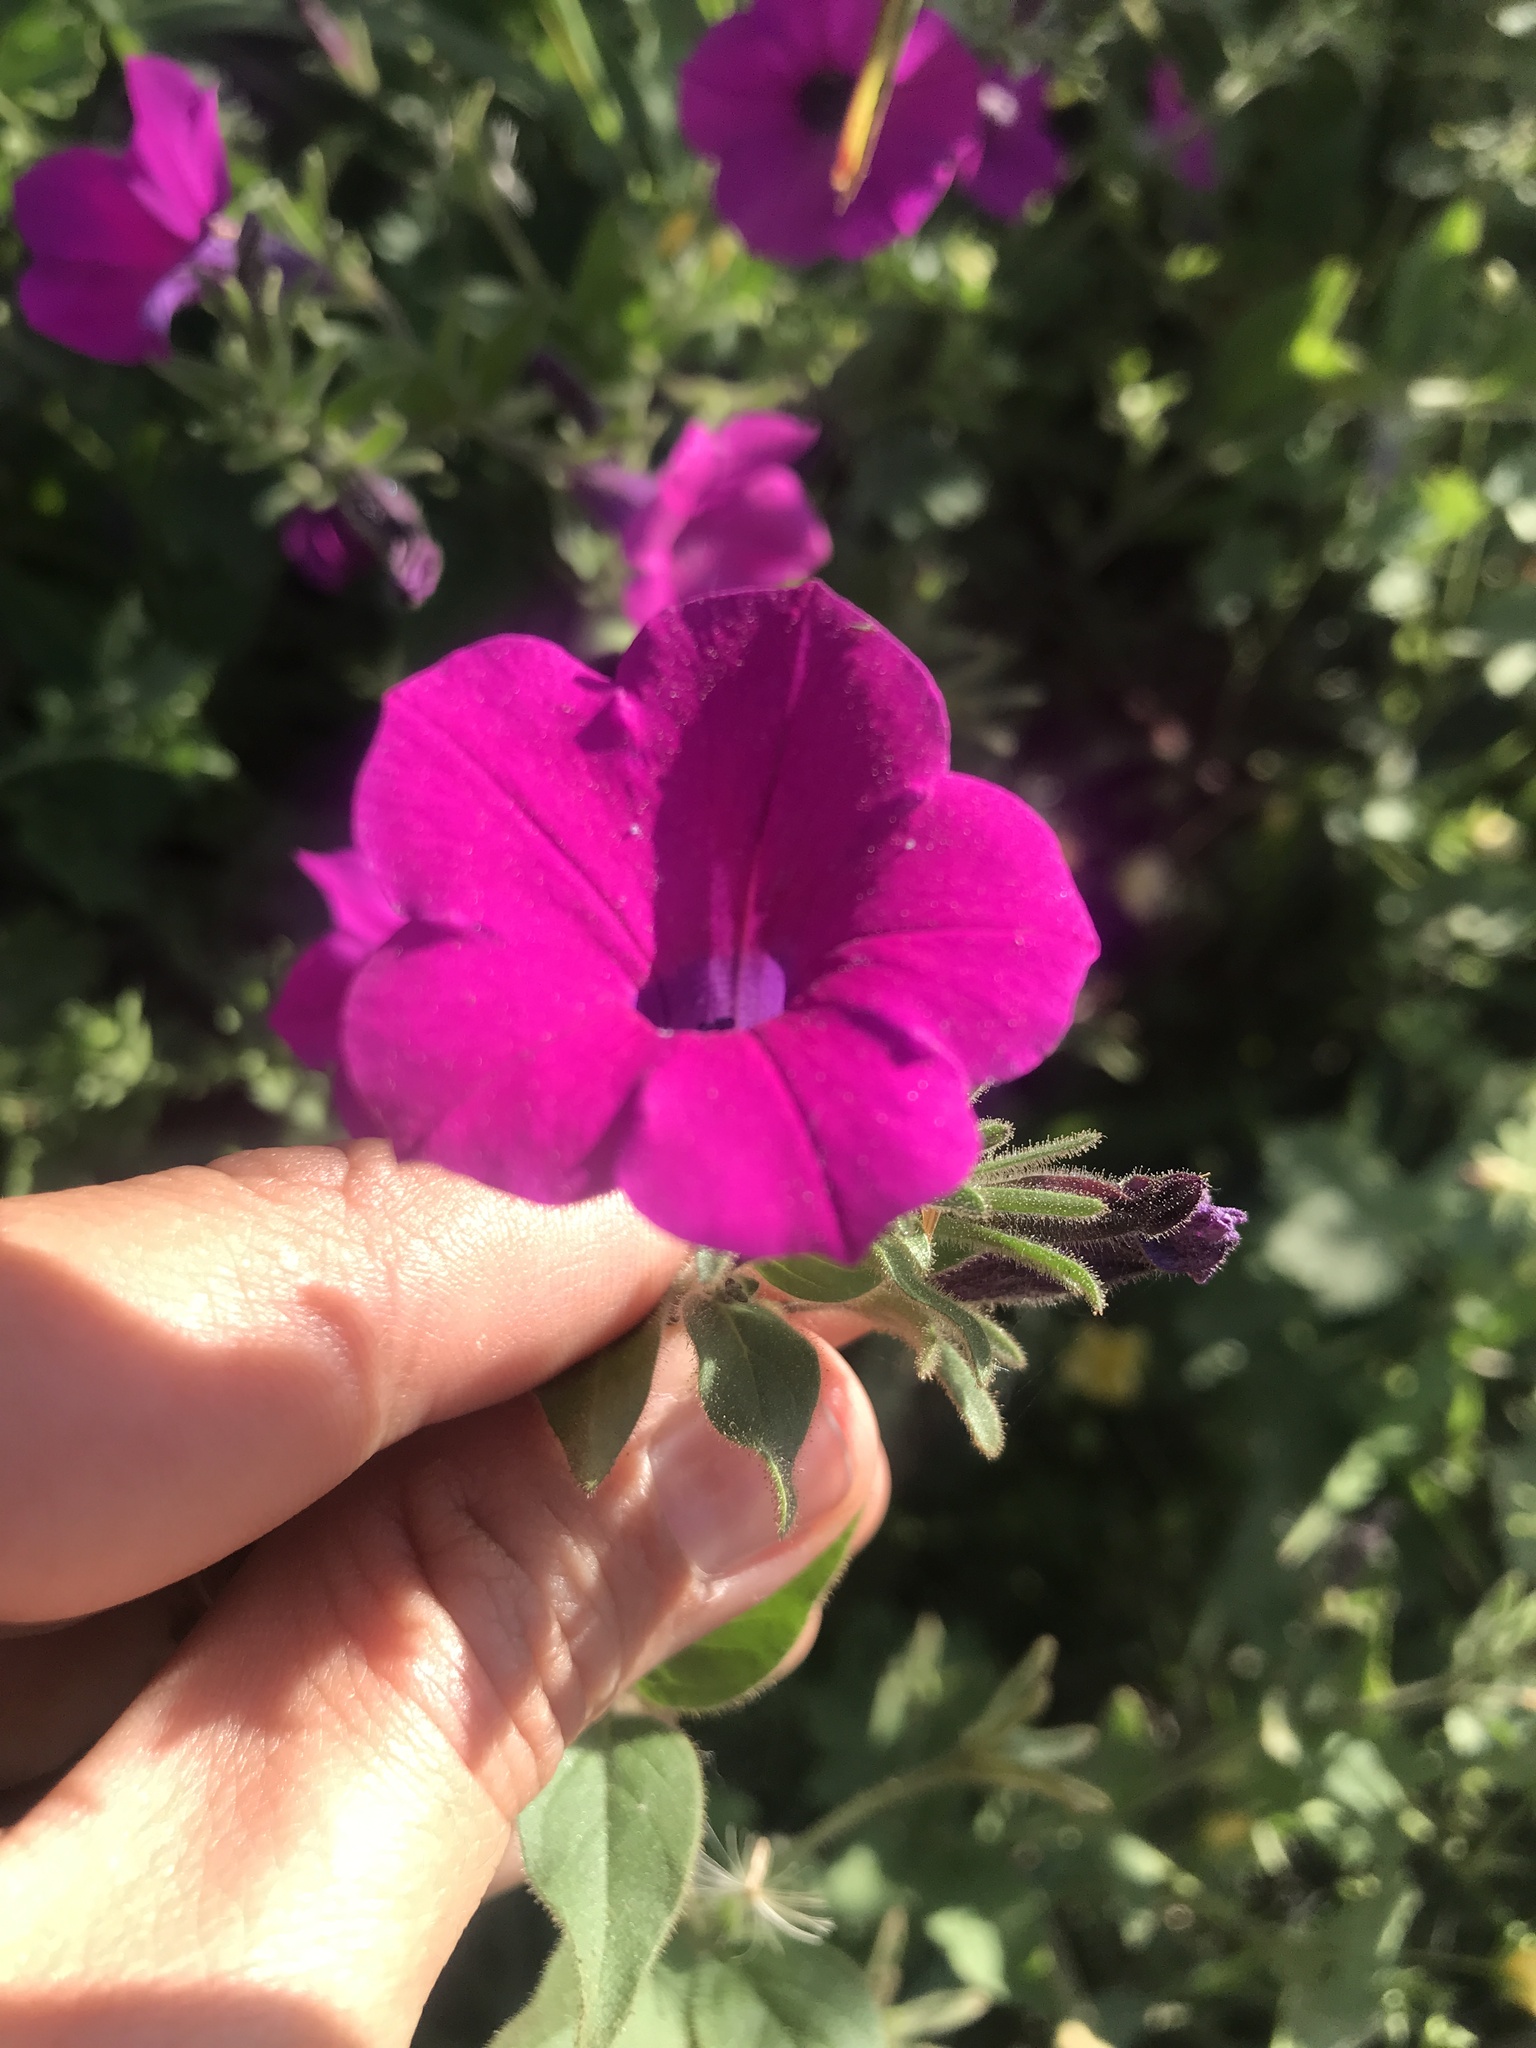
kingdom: Plantae
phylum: Tracheophyta
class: Magnoliopsida
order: Solanales
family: Solanaceae
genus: Petunia
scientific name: Petunia integrifolia
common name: Violet-flower petunia
